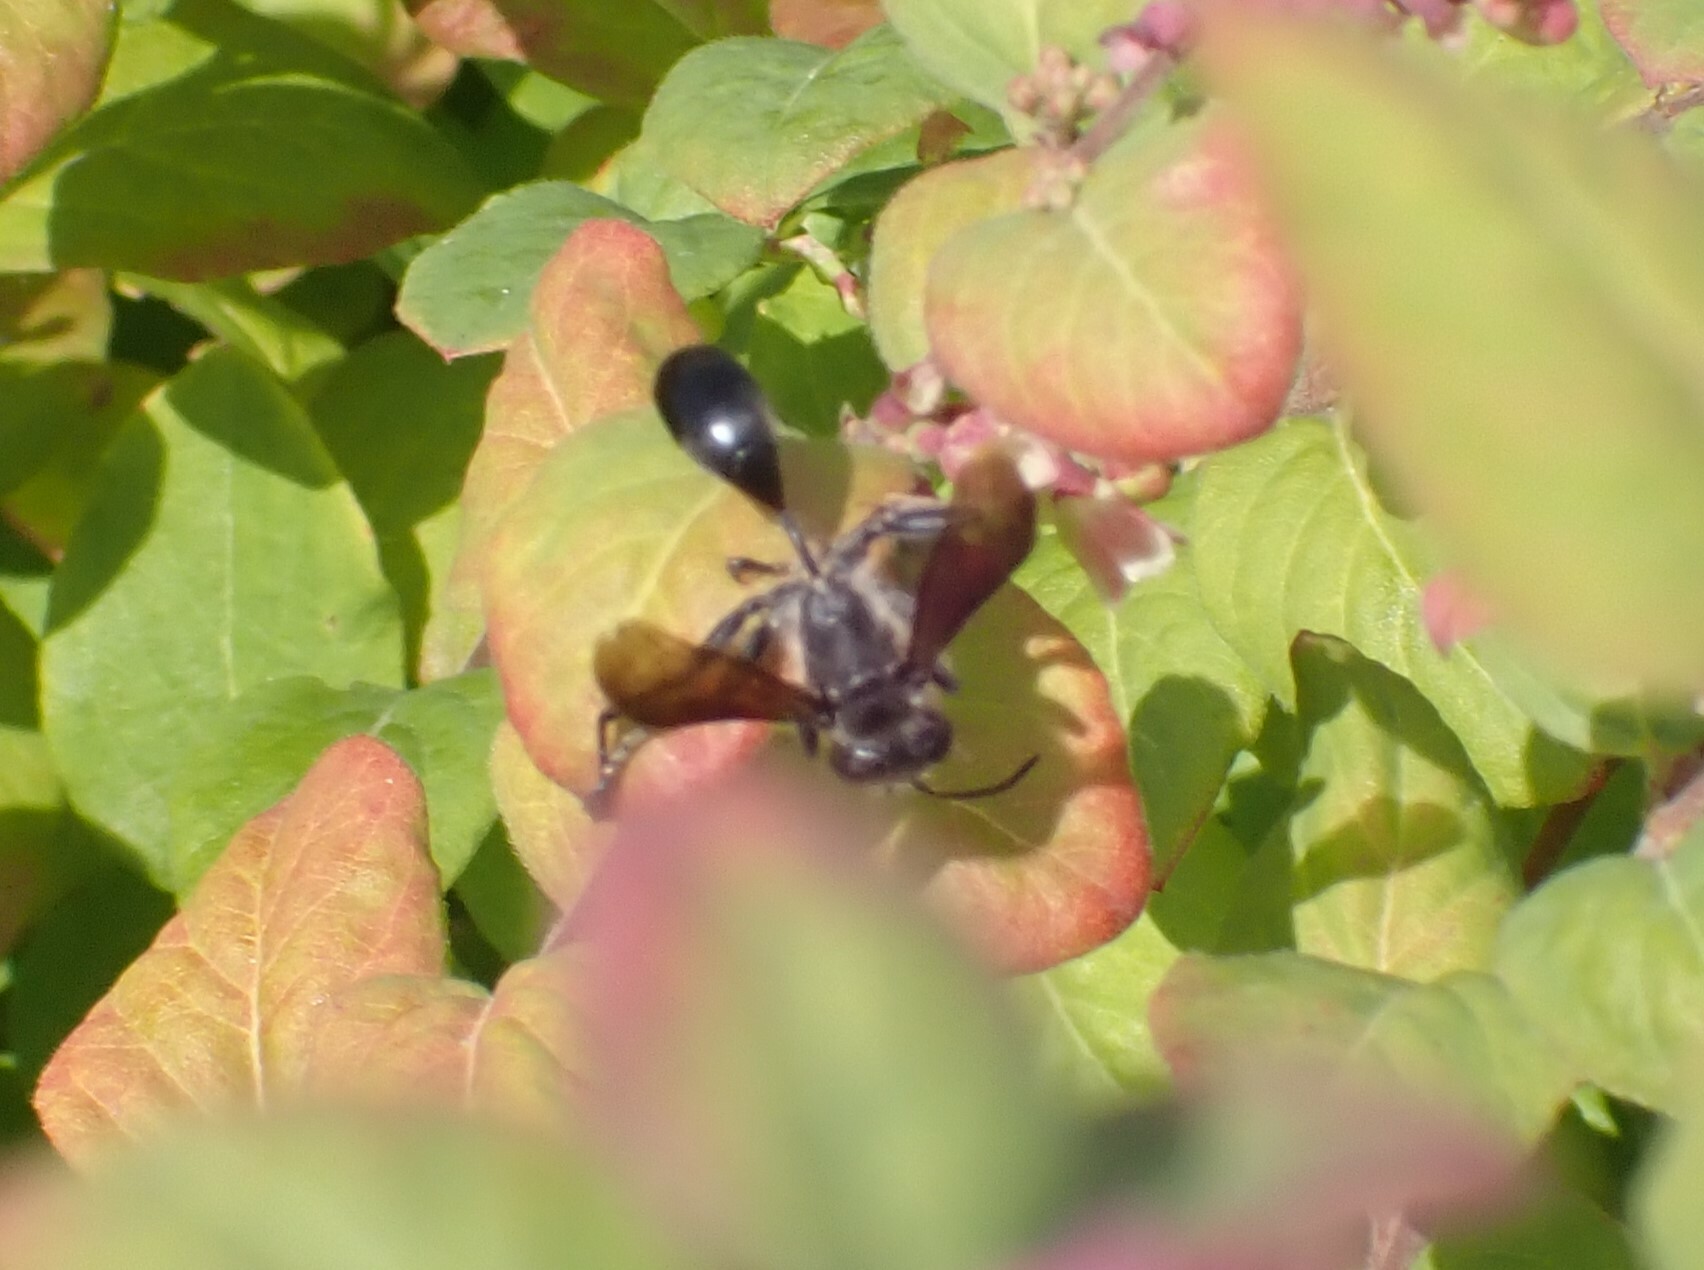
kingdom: Animalia
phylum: Arthropoda
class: Insecta
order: Hymenoptera
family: Sphecidae
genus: Isodontia
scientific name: Isodontia mexicana
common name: Mud dauber
